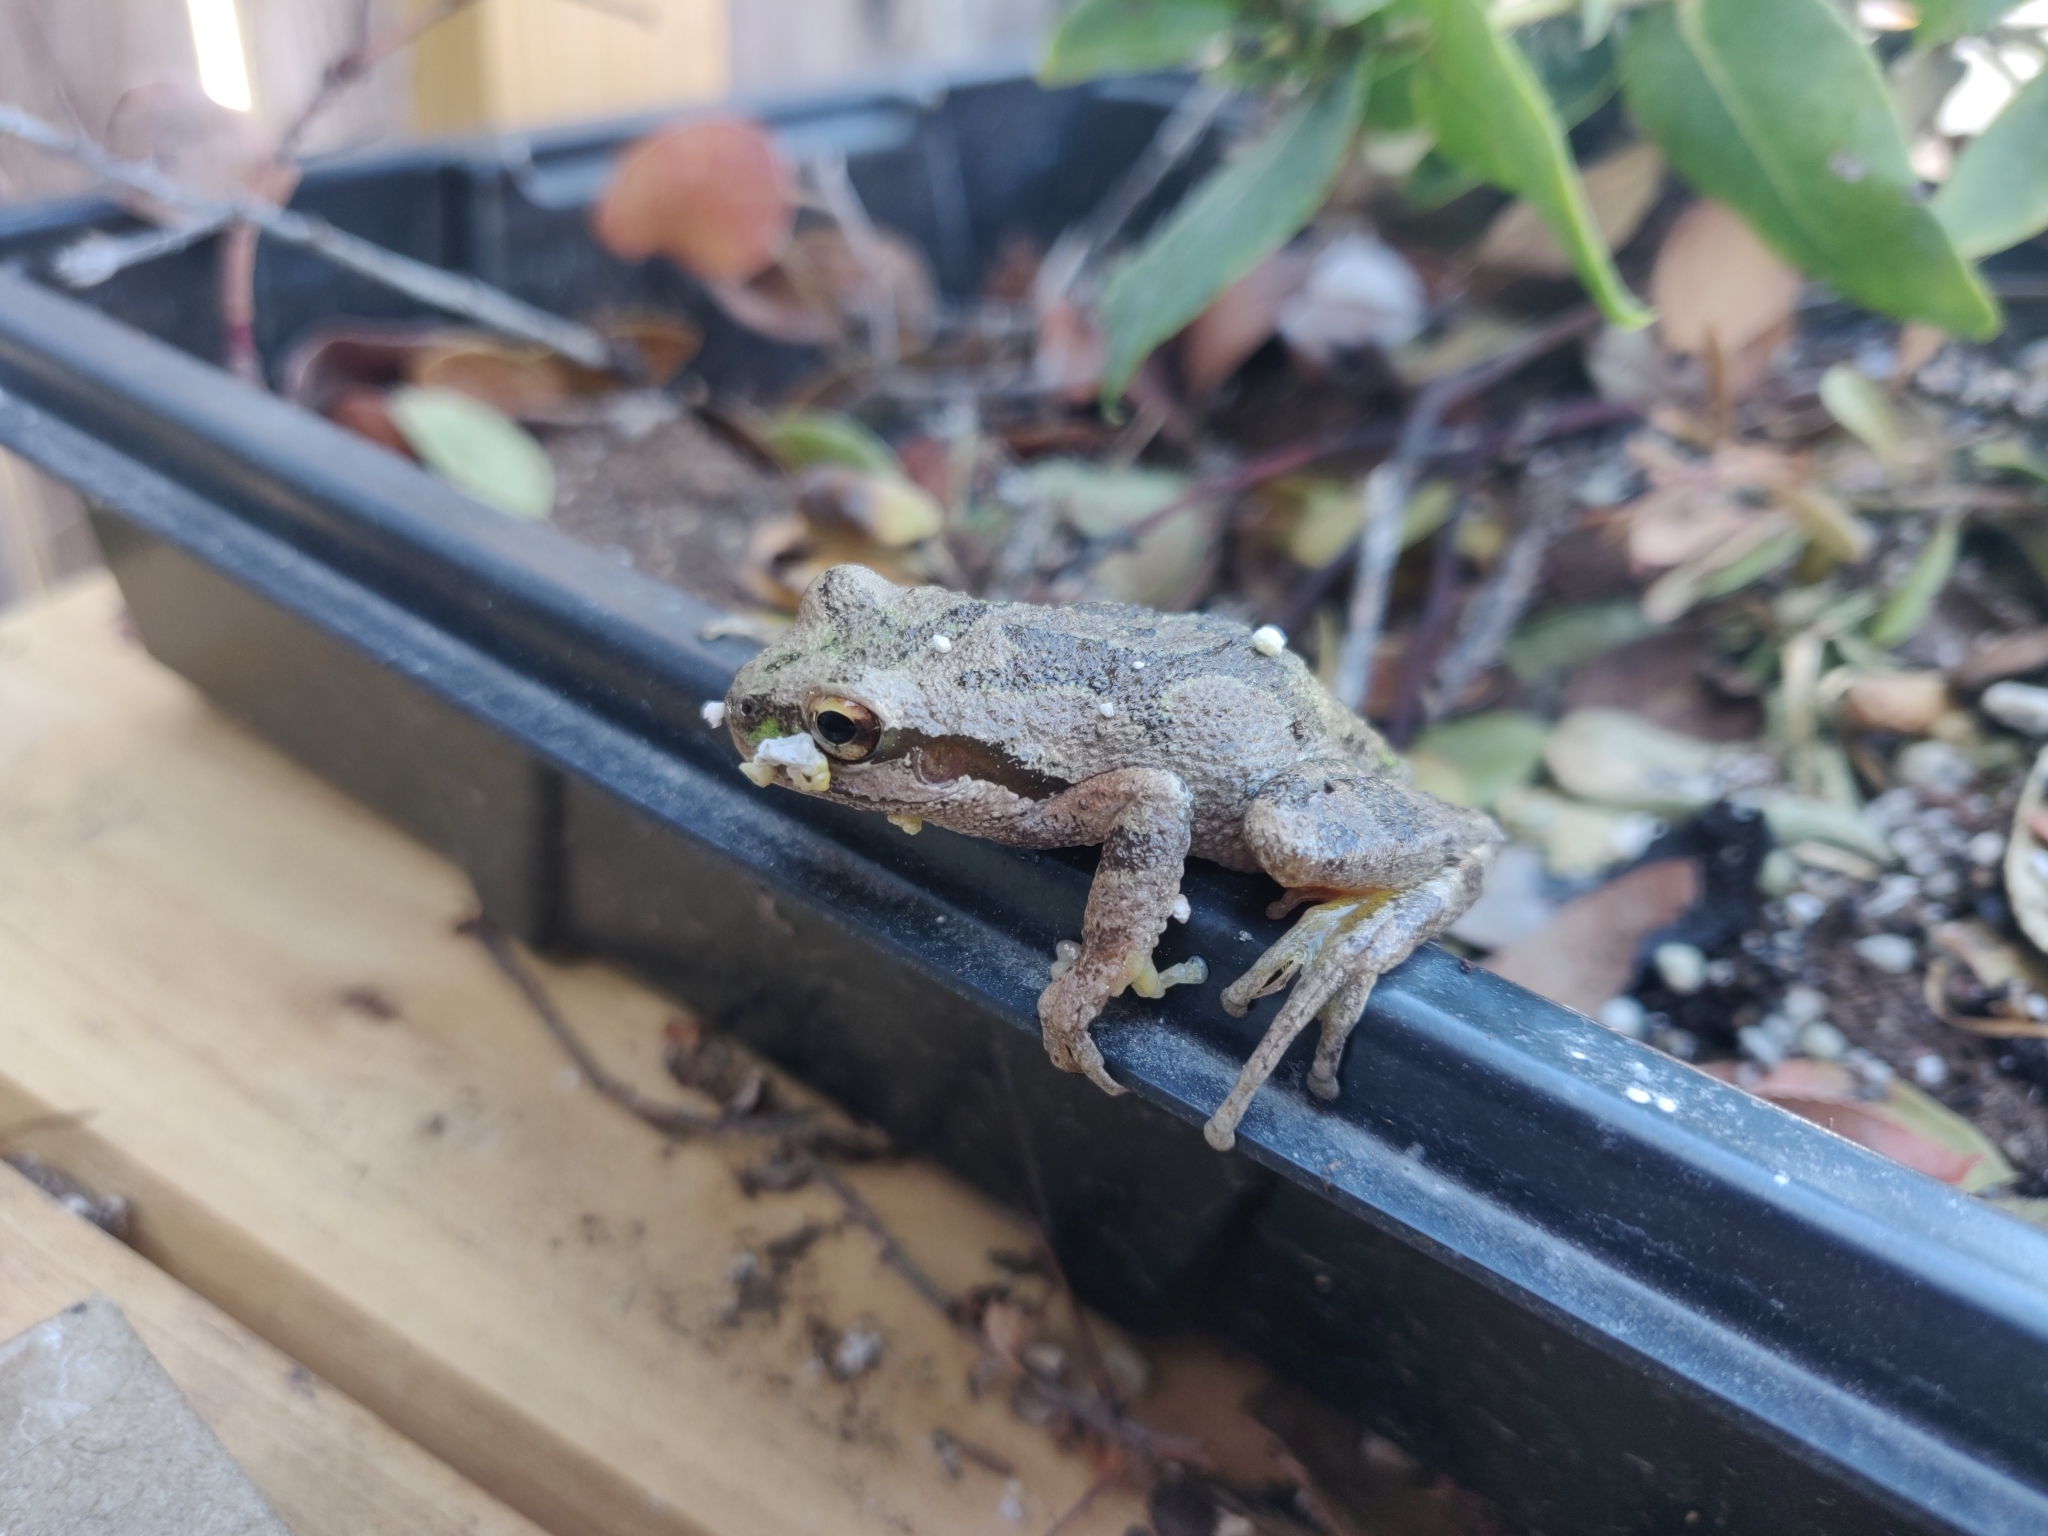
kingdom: Animalia
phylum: Chordata
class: Amphibia
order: Anura
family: Hylidae
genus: Pseudacris
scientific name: Pseudacris regilla
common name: Pacific chorus frog
